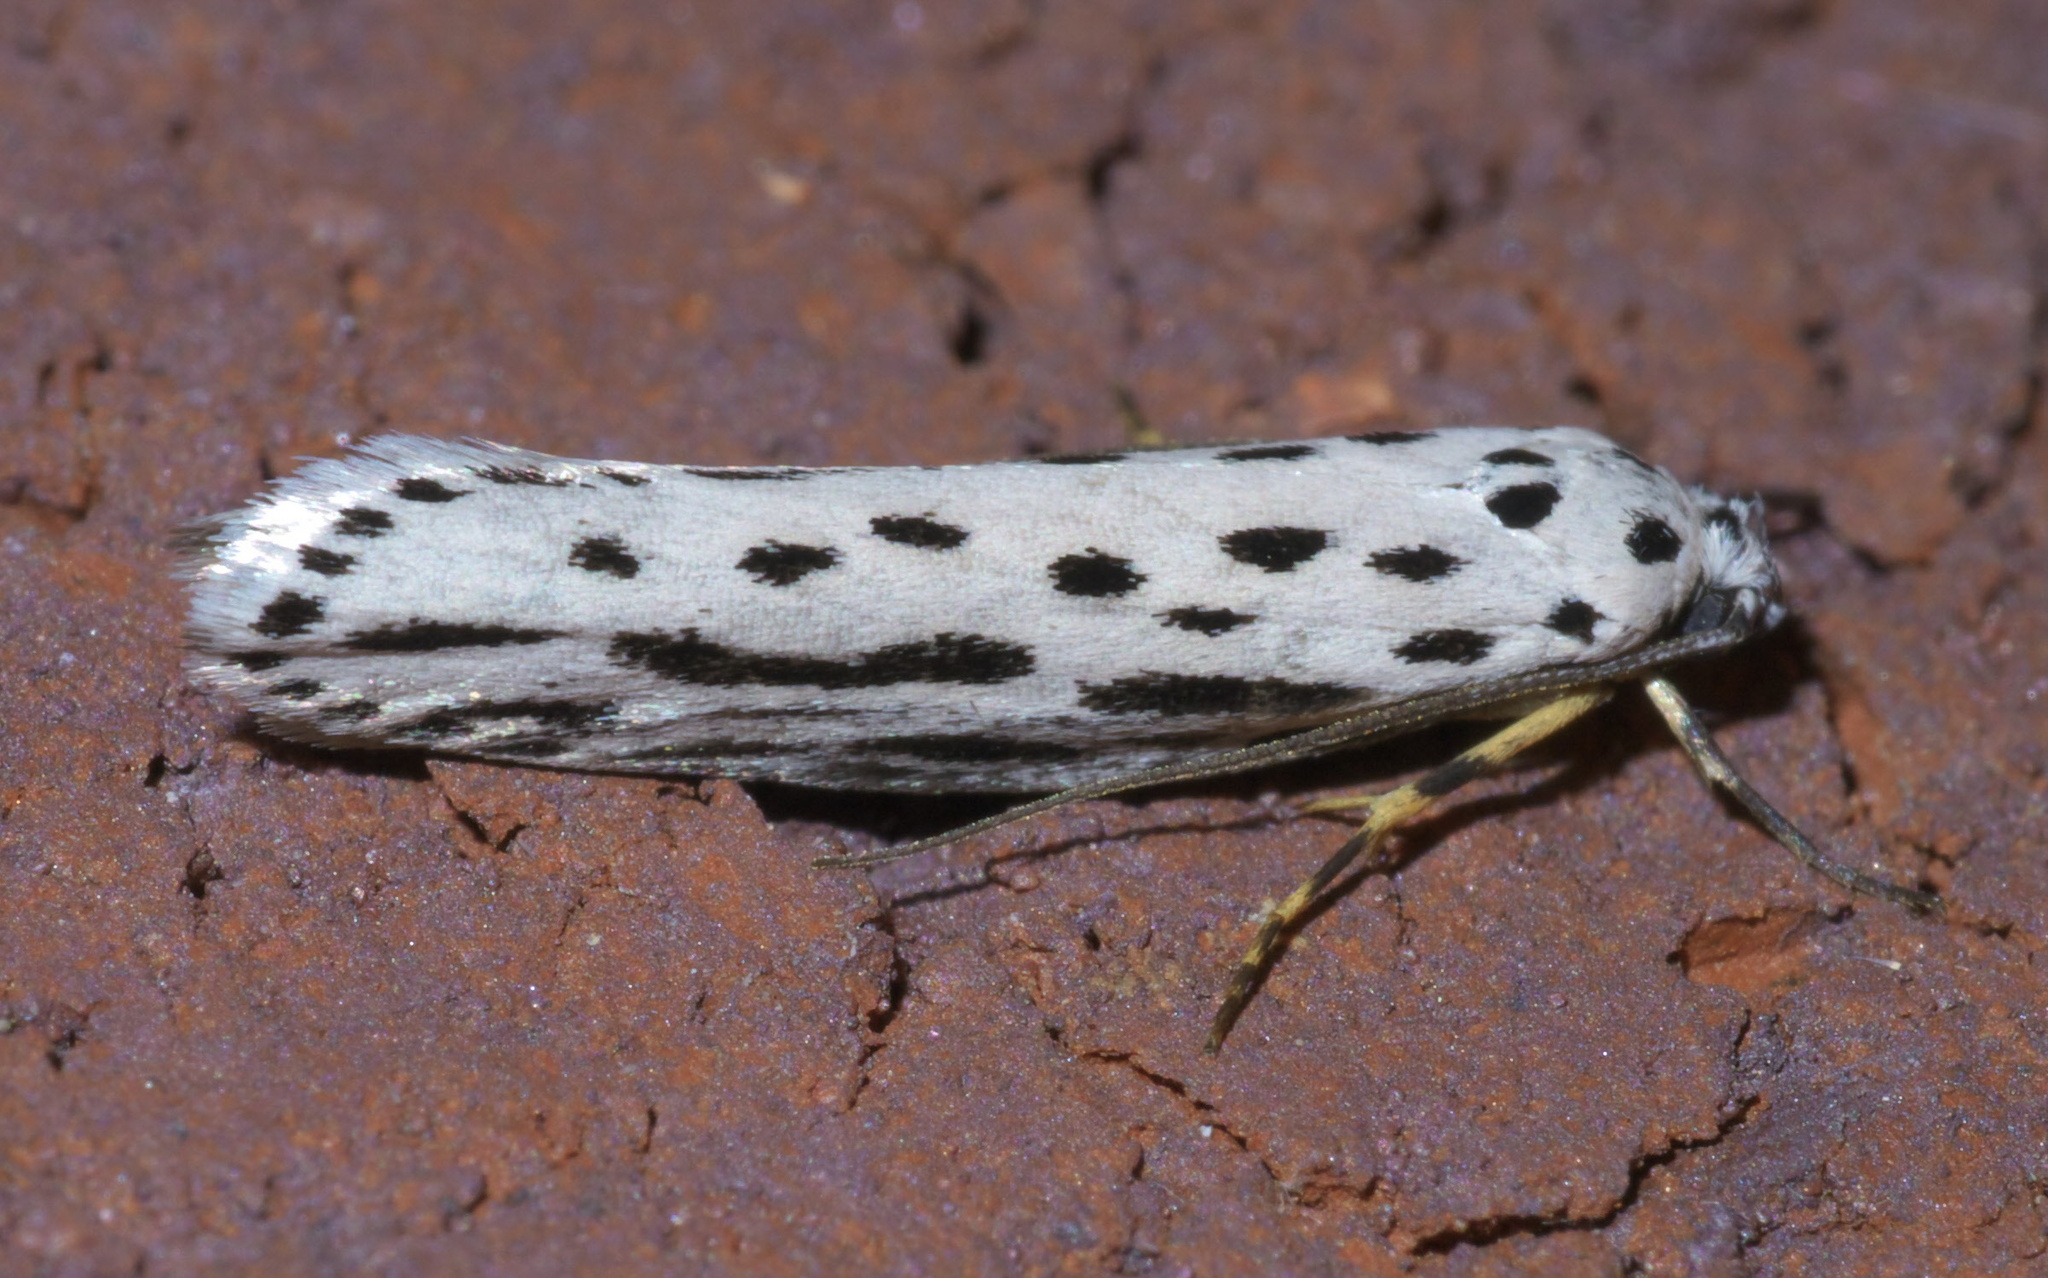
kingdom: Animalia
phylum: Arthropoda
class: Insecta
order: Lepidoptera
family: Ethmiidae
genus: Ethmia
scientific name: Ethmia zelleriella
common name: Zeller's ethmia
